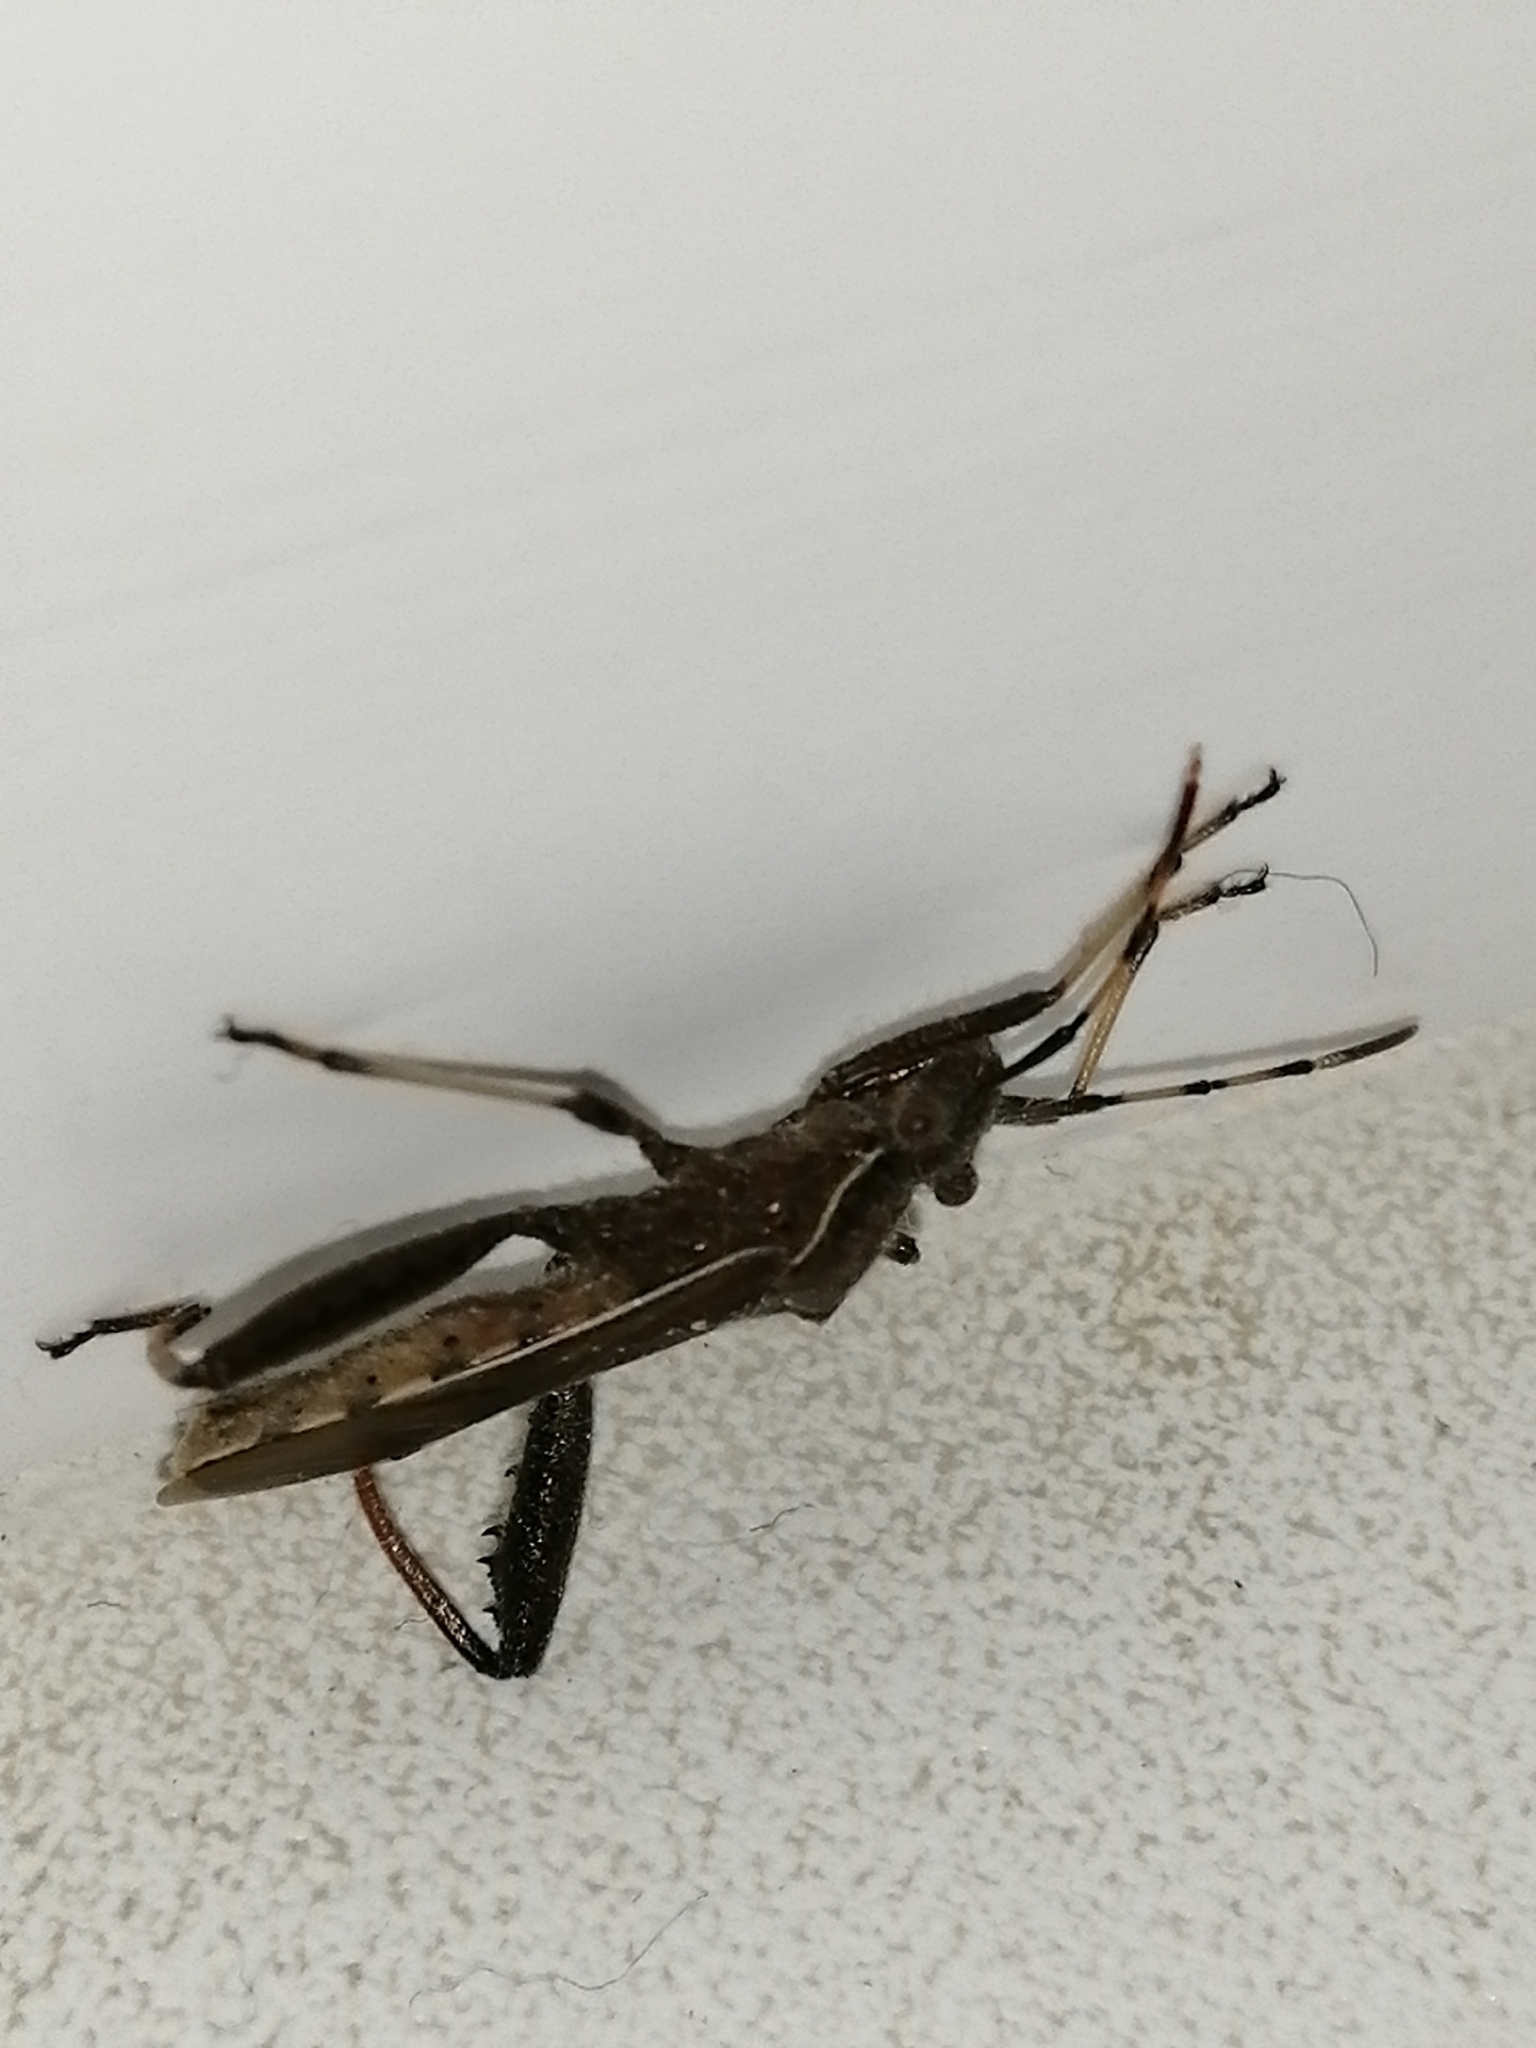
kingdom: Animalia
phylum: Arthropoda
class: Insecta
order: Hemiptera
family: Alydidae
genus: Camptopus
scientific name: Camptopus lateralis
